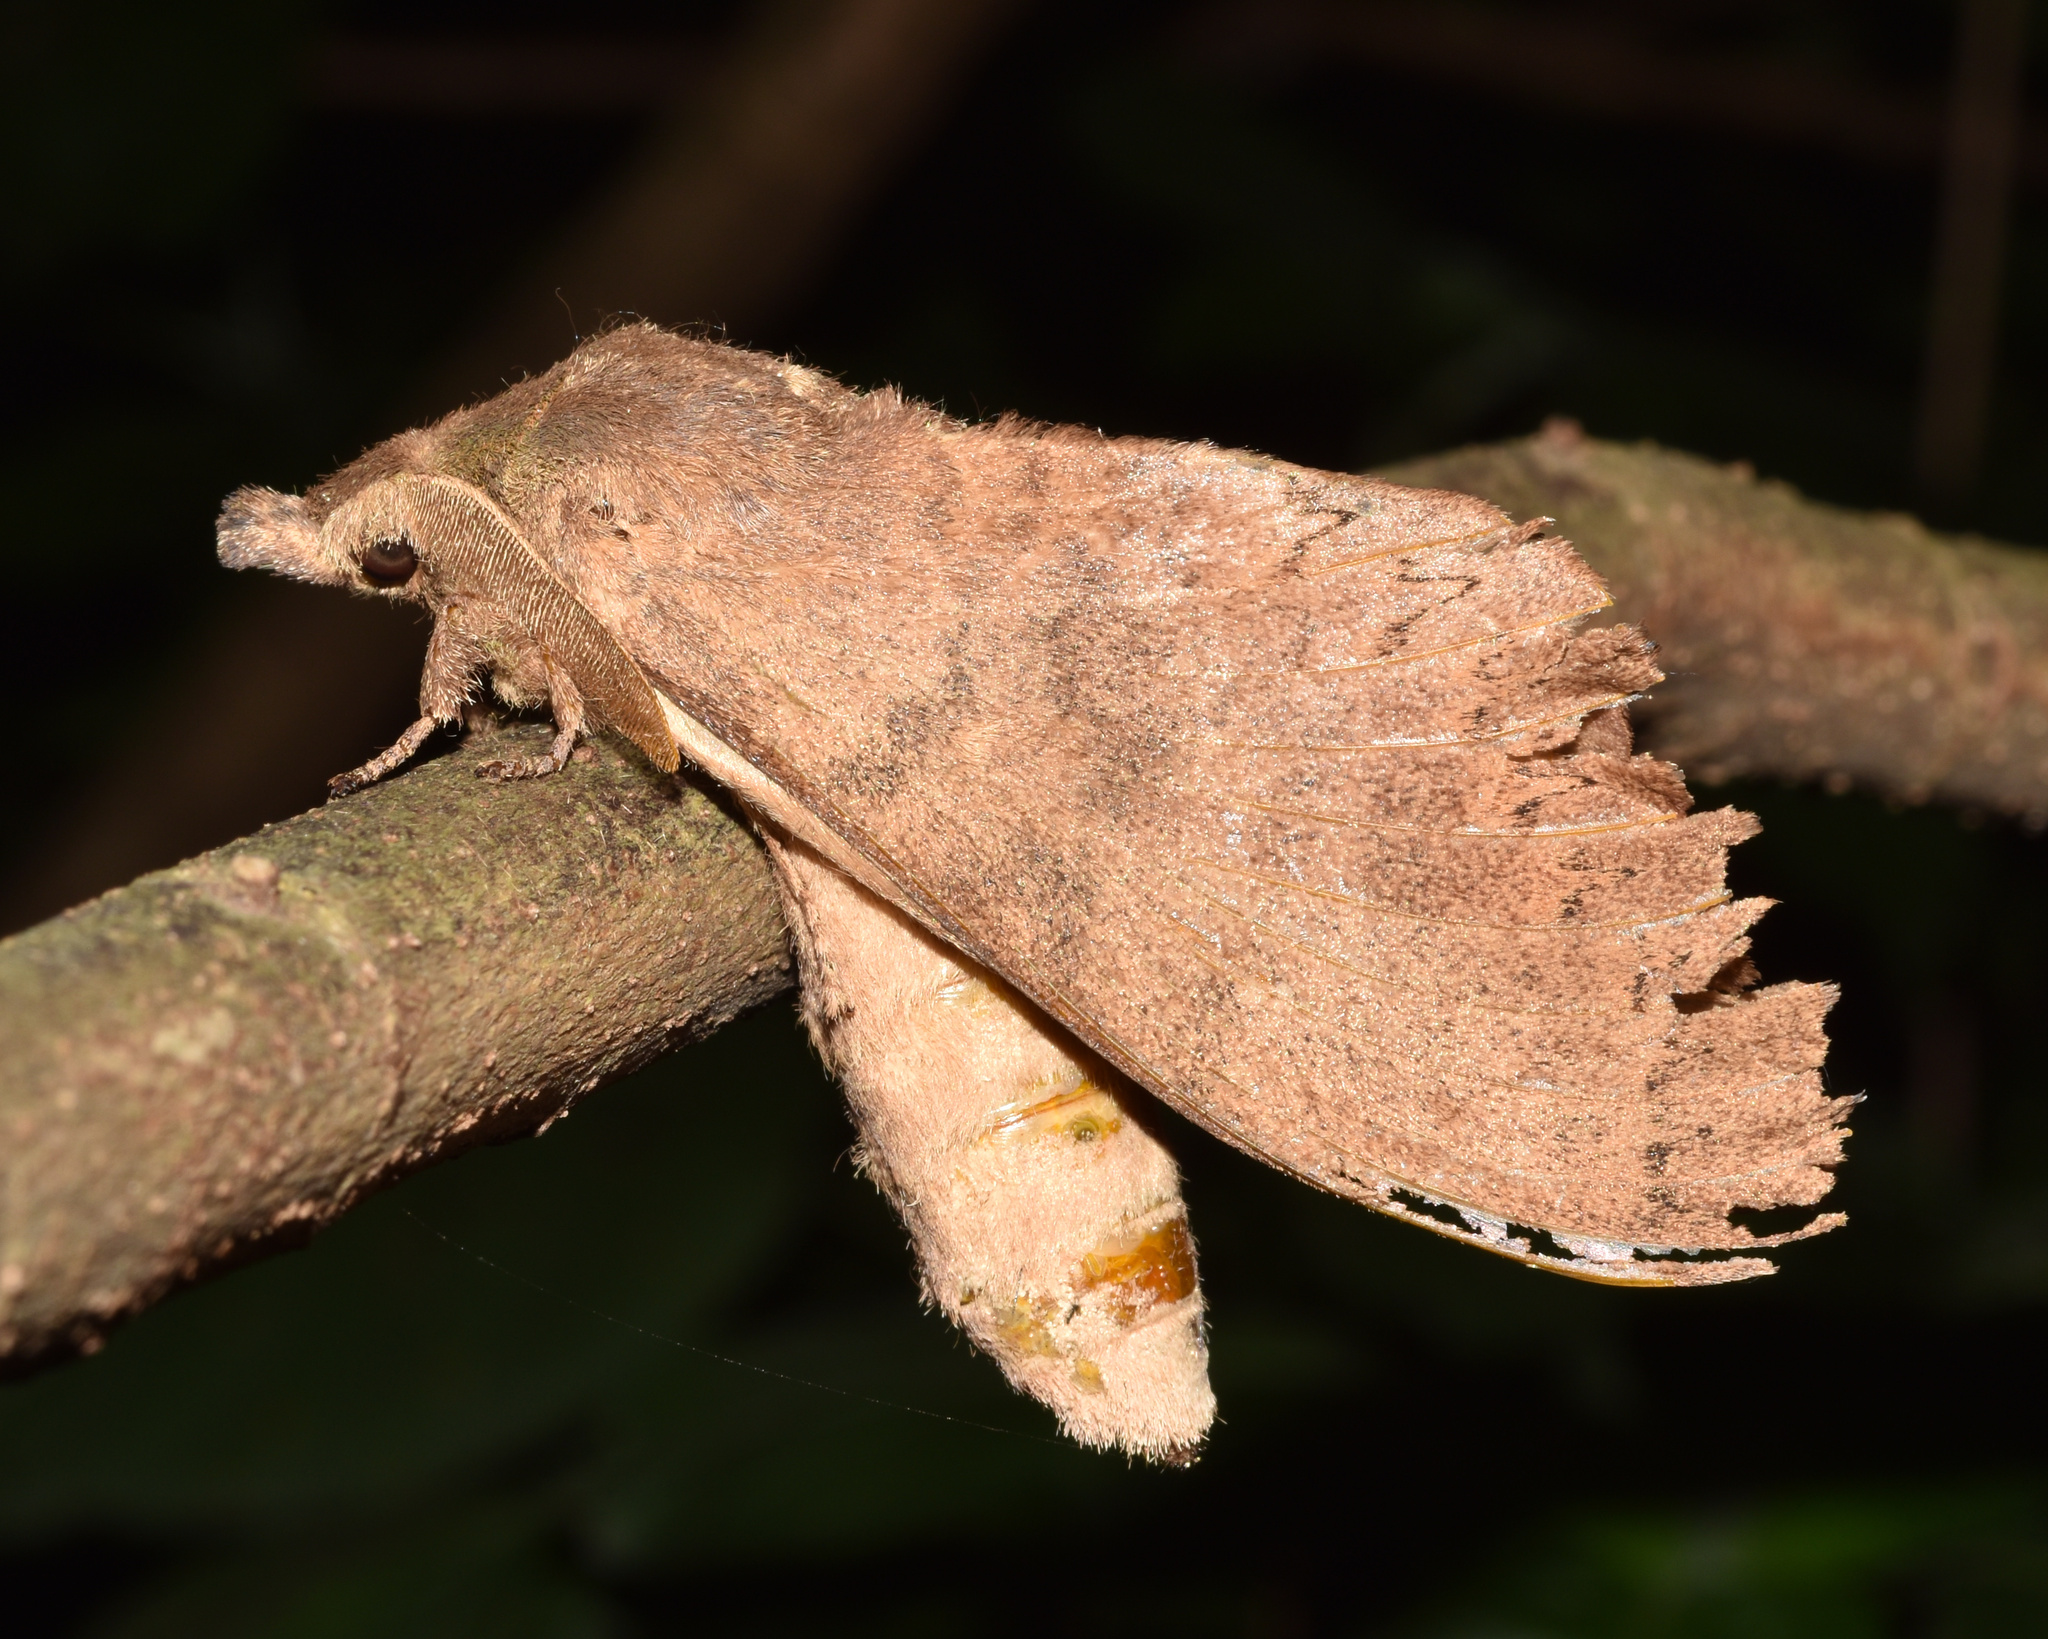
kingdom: Animalia
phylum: Arthropoda
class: Insecta
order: Lepidoptera
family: Lasiocampidae
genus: Catalebeda
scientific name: Catalebeda cuneilinea
